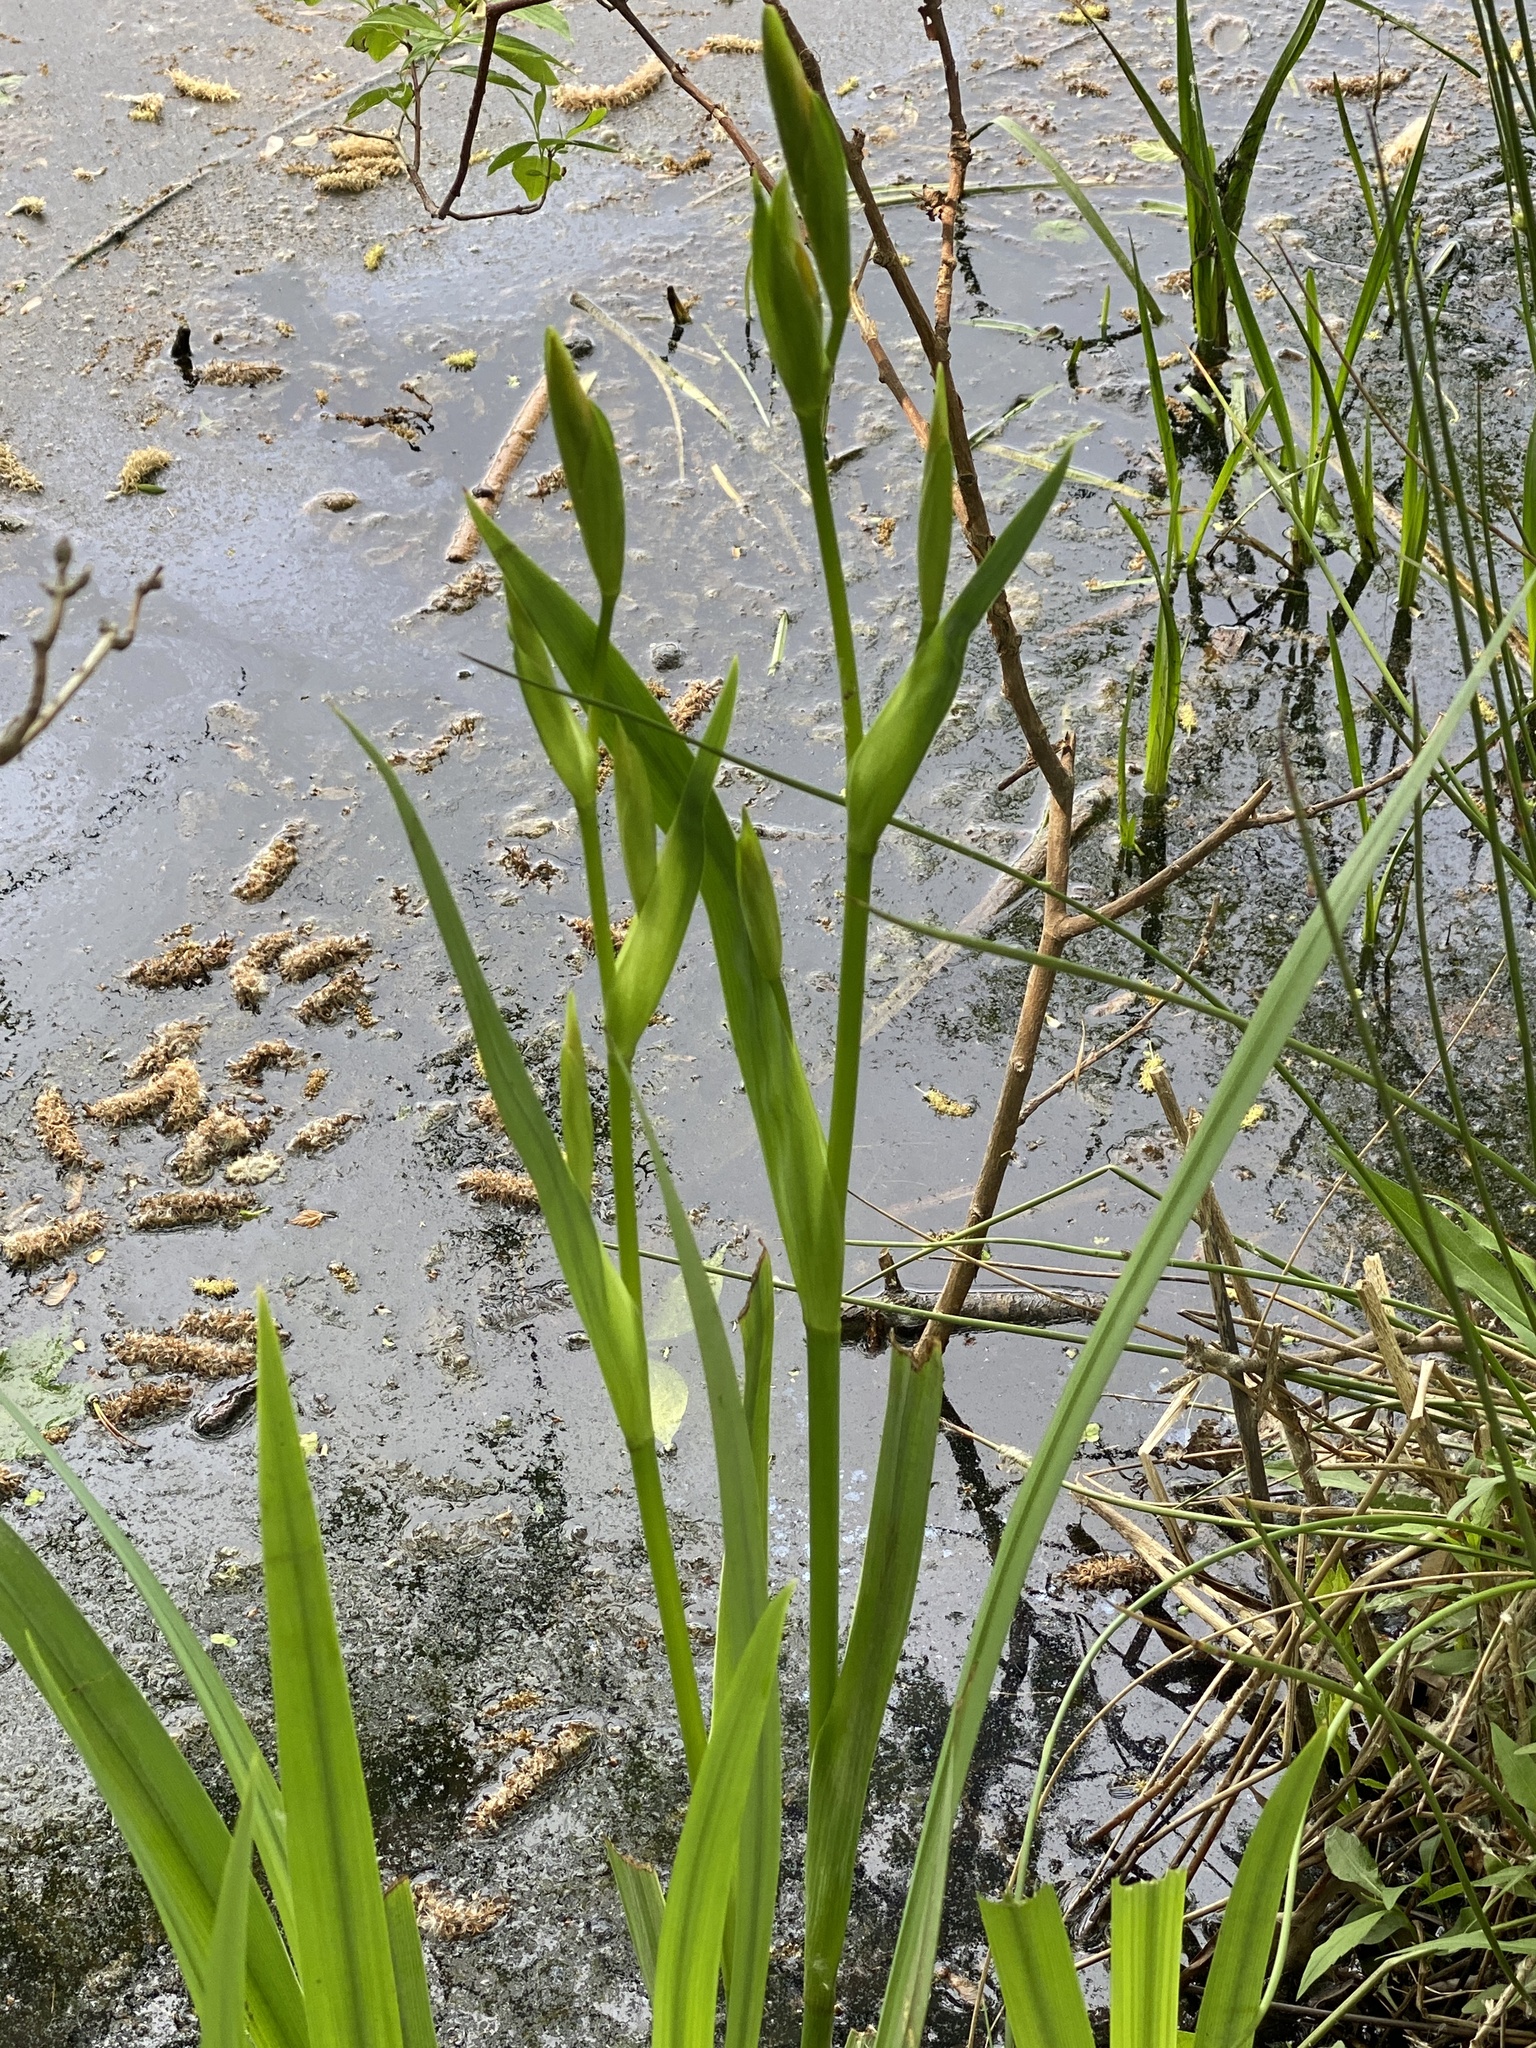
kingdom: Plantae
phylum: Tracheophyta
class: Liliopsida
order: Asparagales
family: Iridaceae
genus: Iris
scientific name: Iris pseudacorus
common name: Yellow flag
